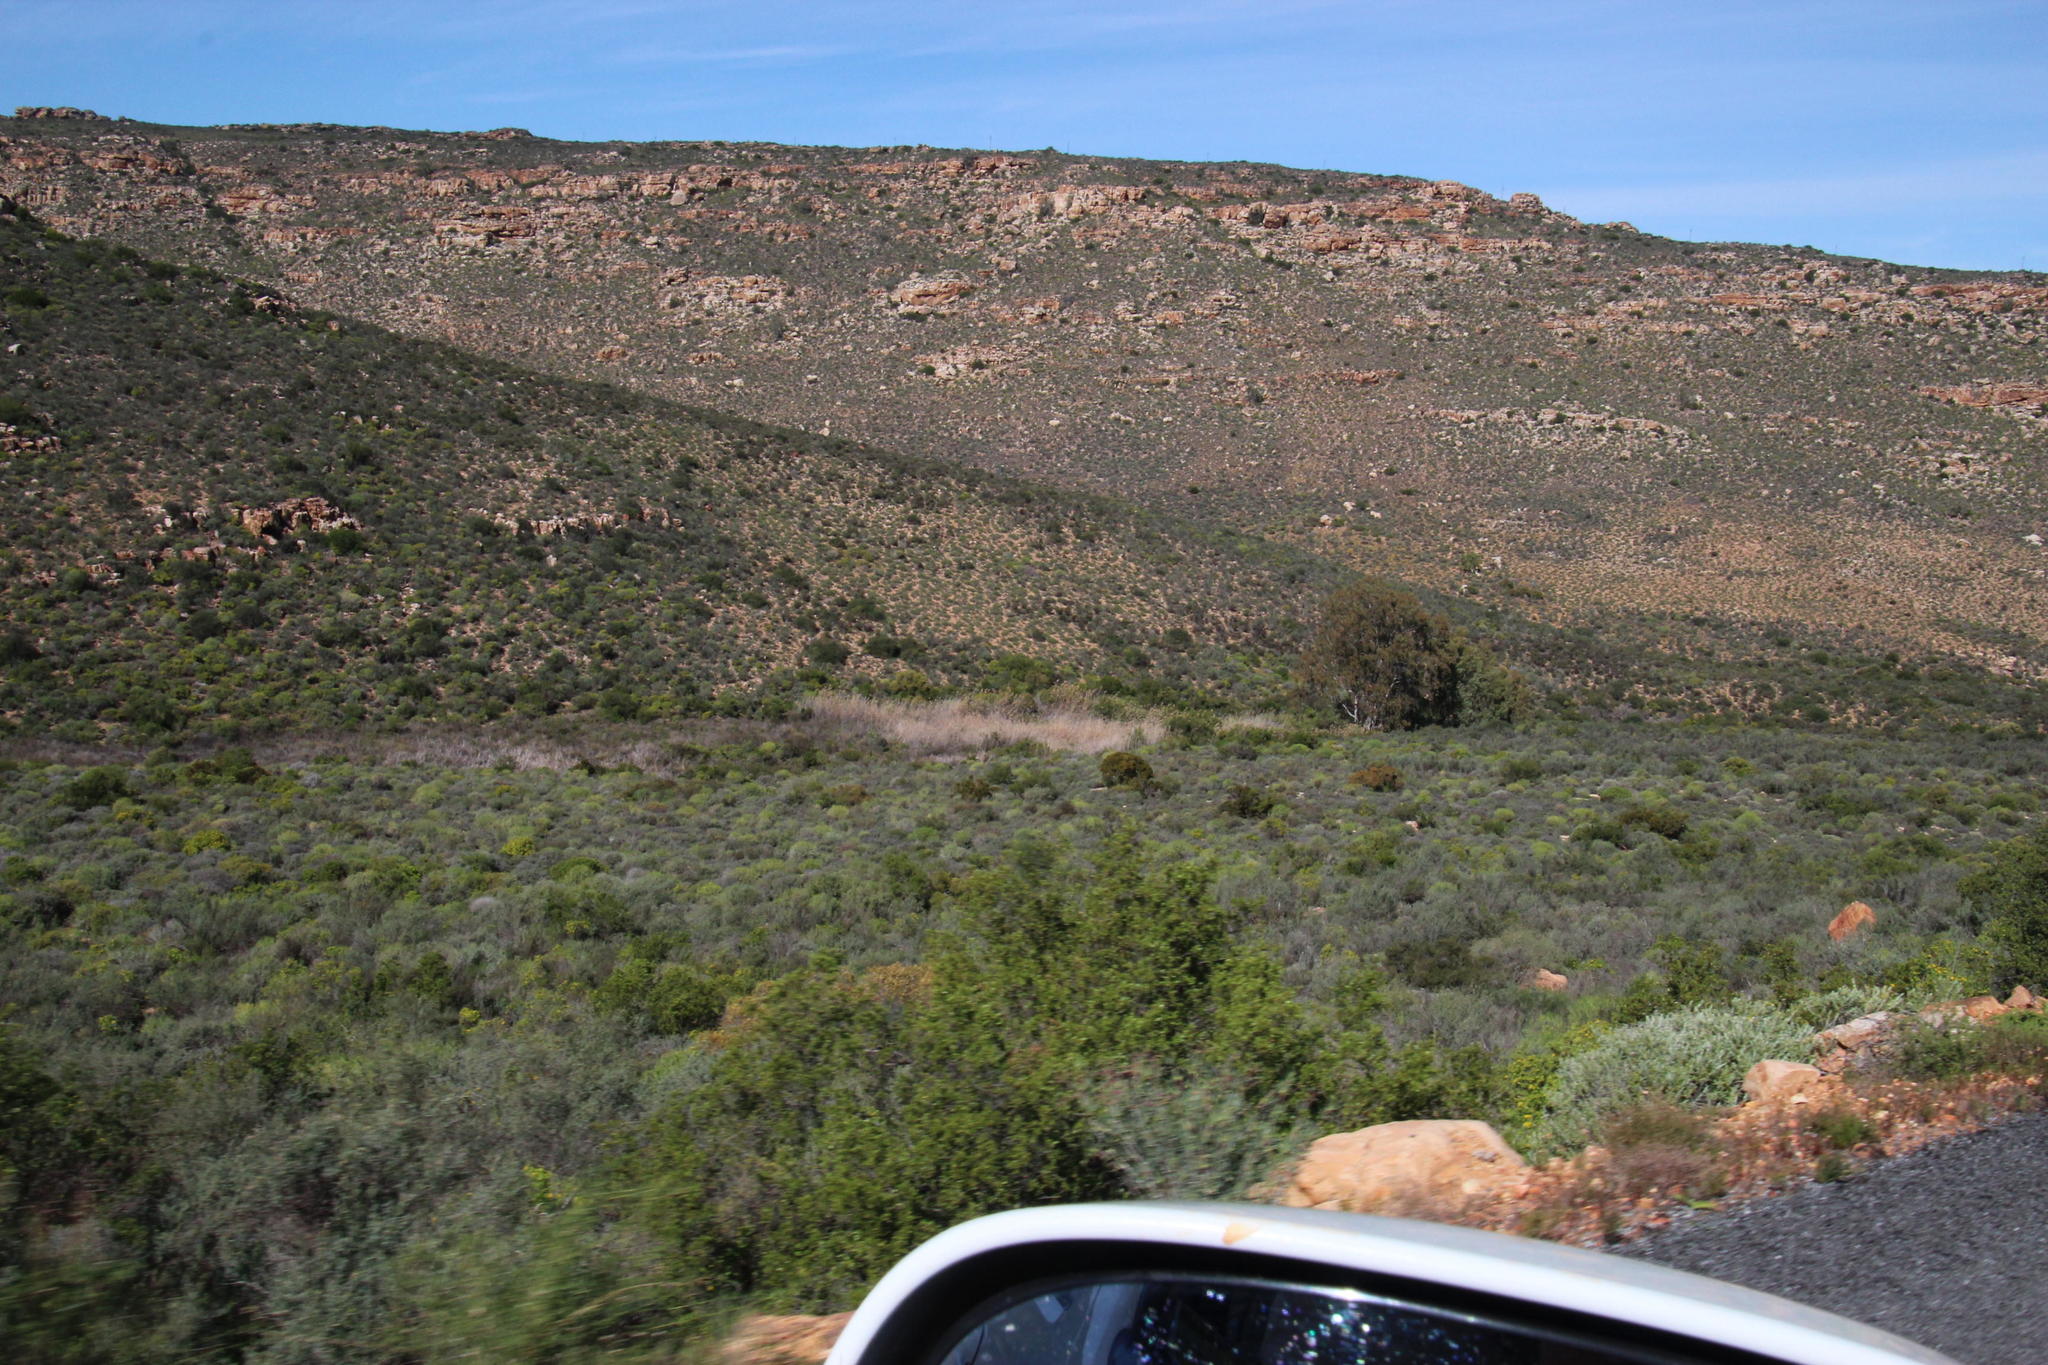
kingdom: Plantae
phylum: Tracheophyta
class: Liliopsida
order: Poales
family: Poaceae
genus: Phragmites
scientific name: Phragmites australis
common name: Common reed
